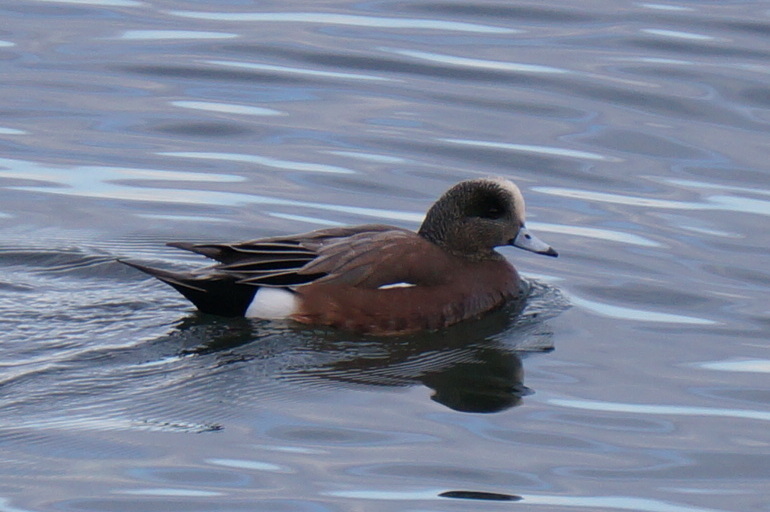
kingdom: Animalia
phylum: Chordata
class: Aves
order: Anseriformes
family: Anatidae
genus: Mareca
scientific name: Mareca americana
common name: American wigeon
